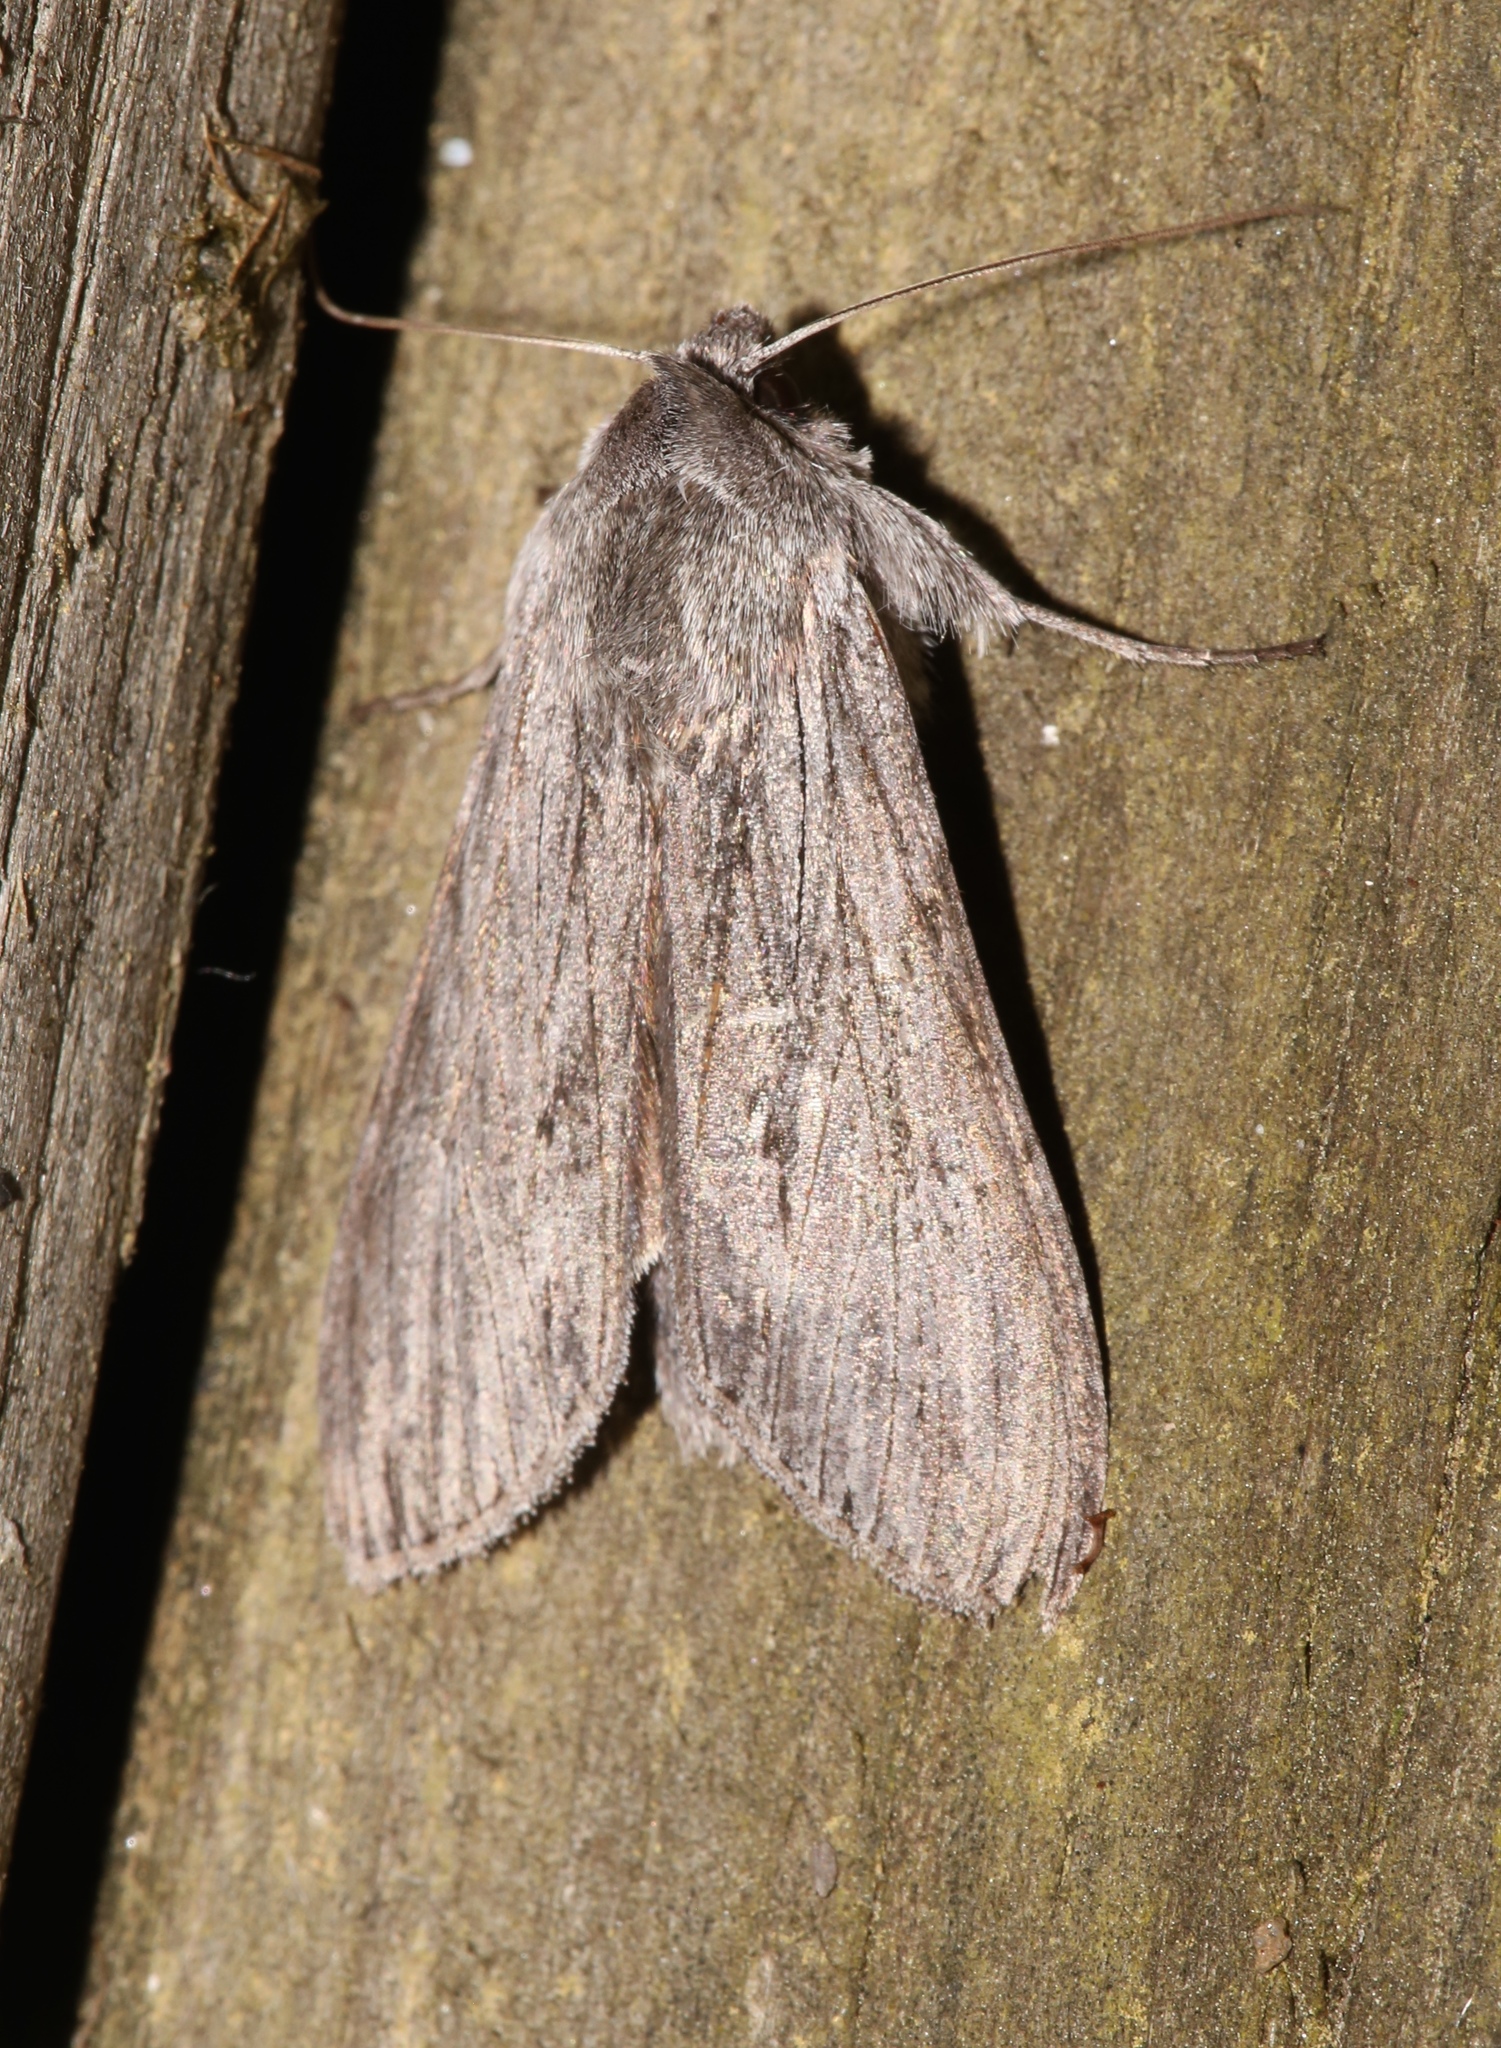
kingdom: Animalia
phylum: Arthropoda
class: Insecta
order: Lepidoptera
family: Noctuidae
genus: Cucullia
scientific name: Cucullia intermedia
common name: Goldenrod cutworm
